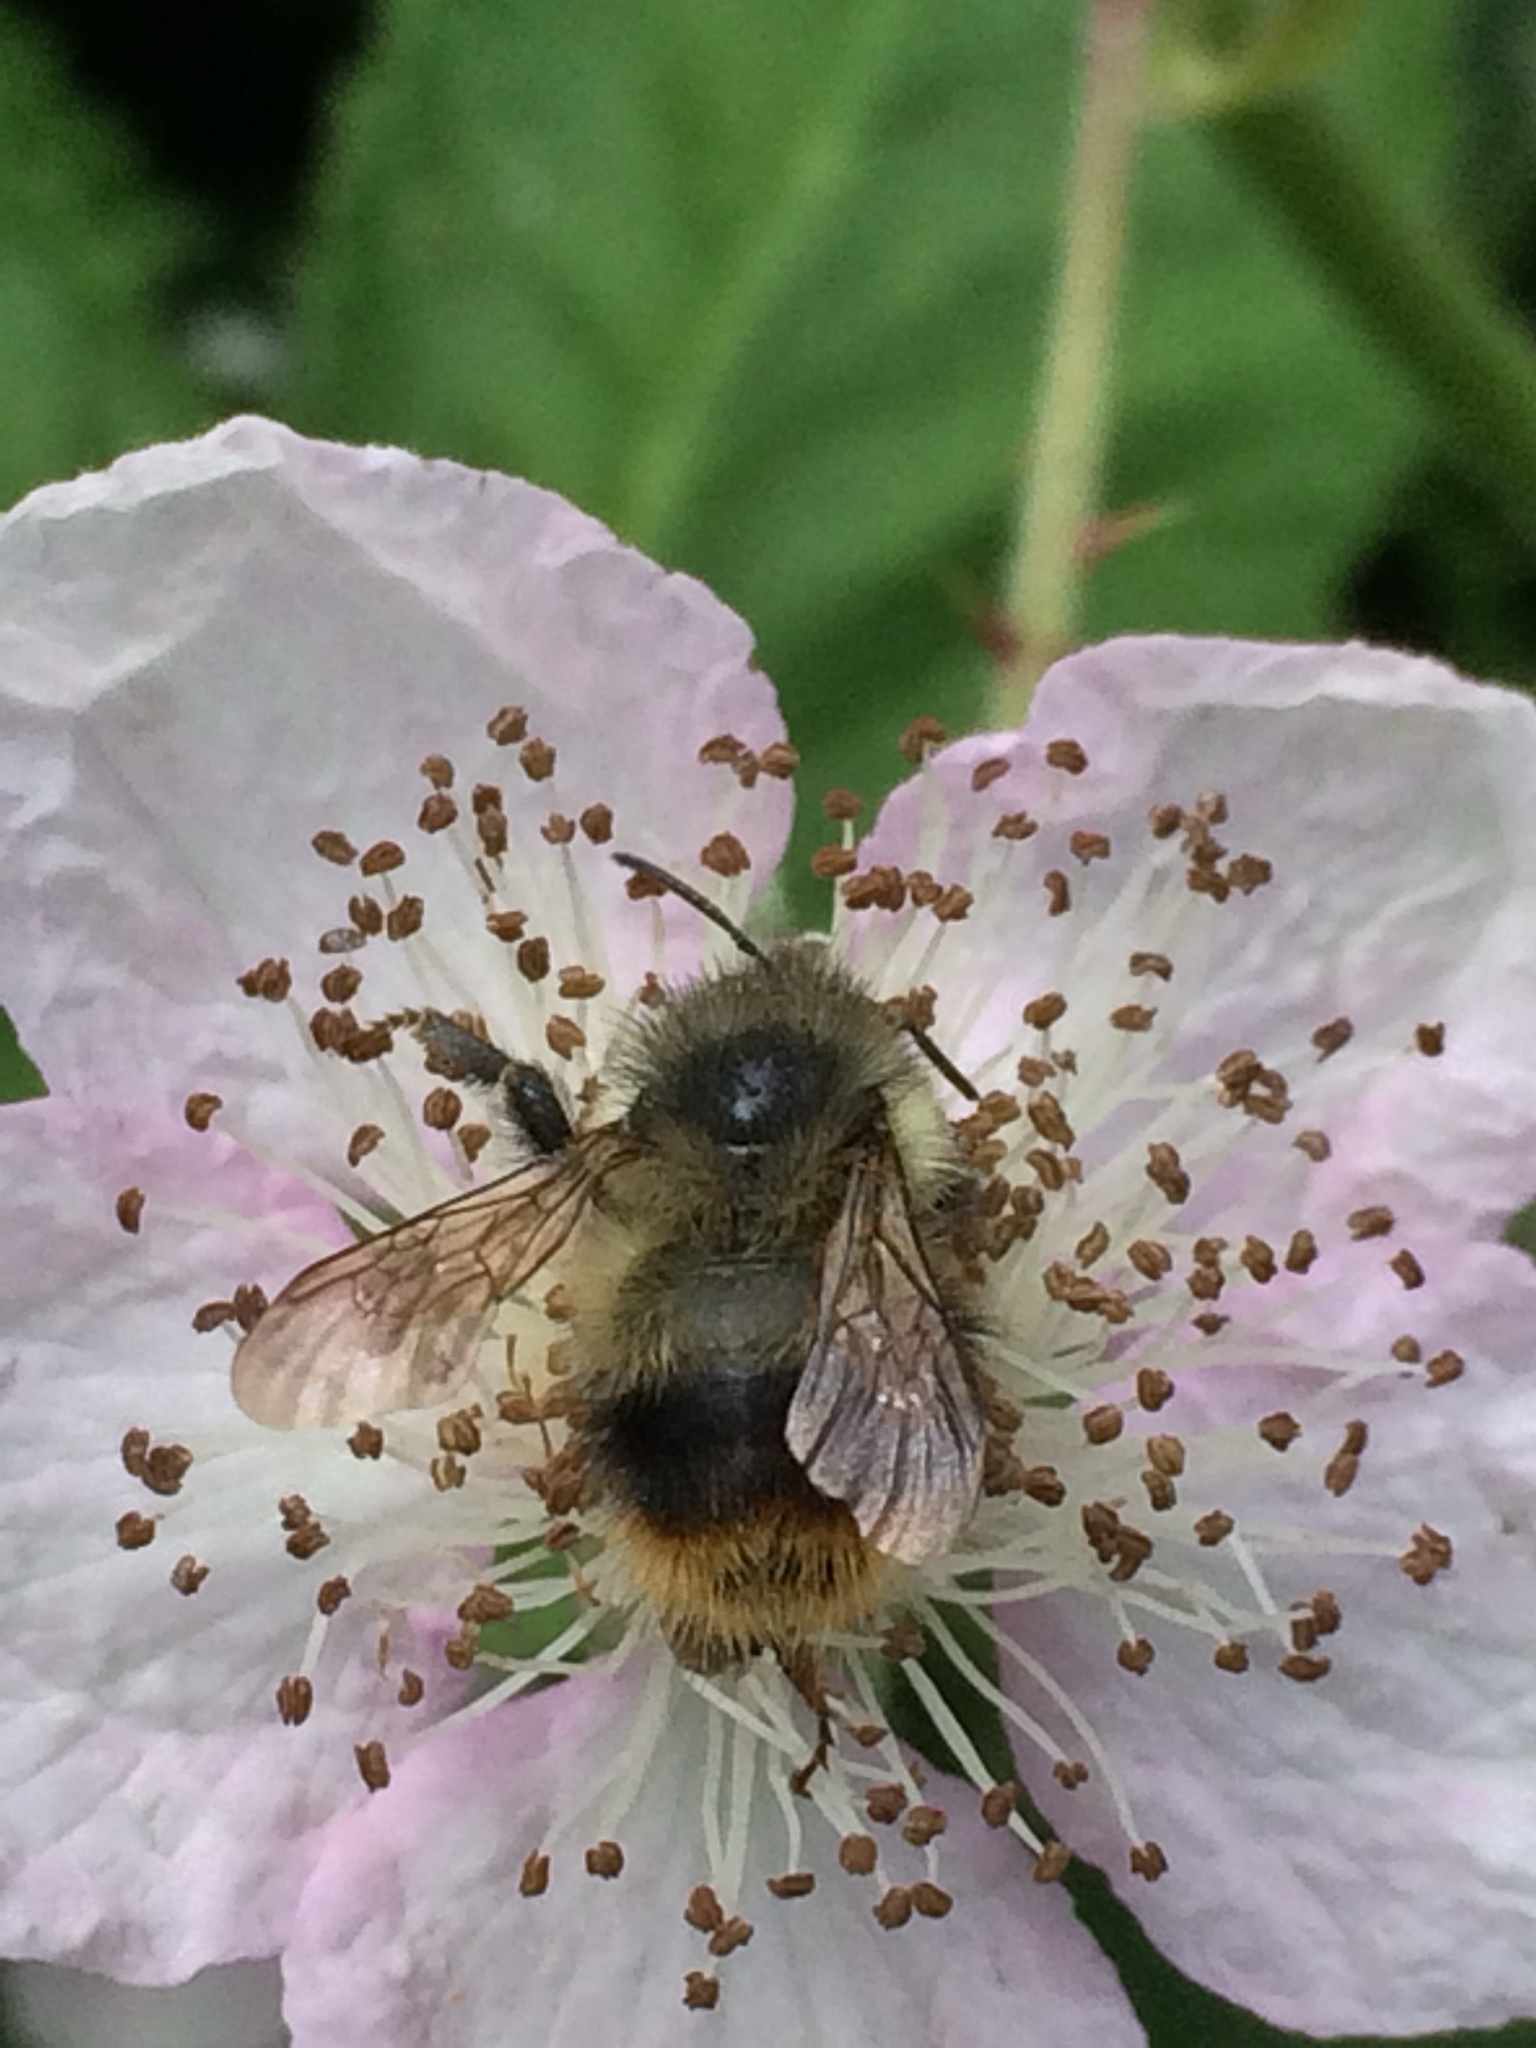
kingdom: Animalia
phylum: Arthropoda
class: Insecta
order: Hymenoptera
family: Apidae
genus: Bombus
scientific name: Bombus mixtus
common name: Fuzzy-horned bumble bee
